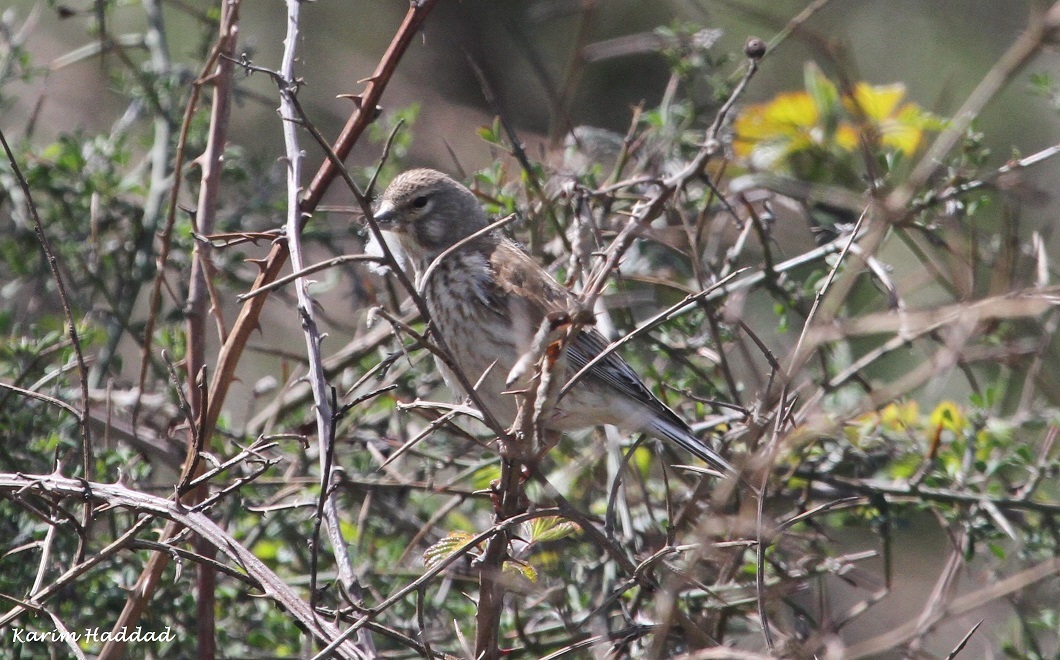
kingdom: Animalia
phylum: Chordata
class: Aves
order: Passeriformes
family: Fringillidae
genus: Linaria
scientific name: Linaria cannabina
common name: Common linnet
